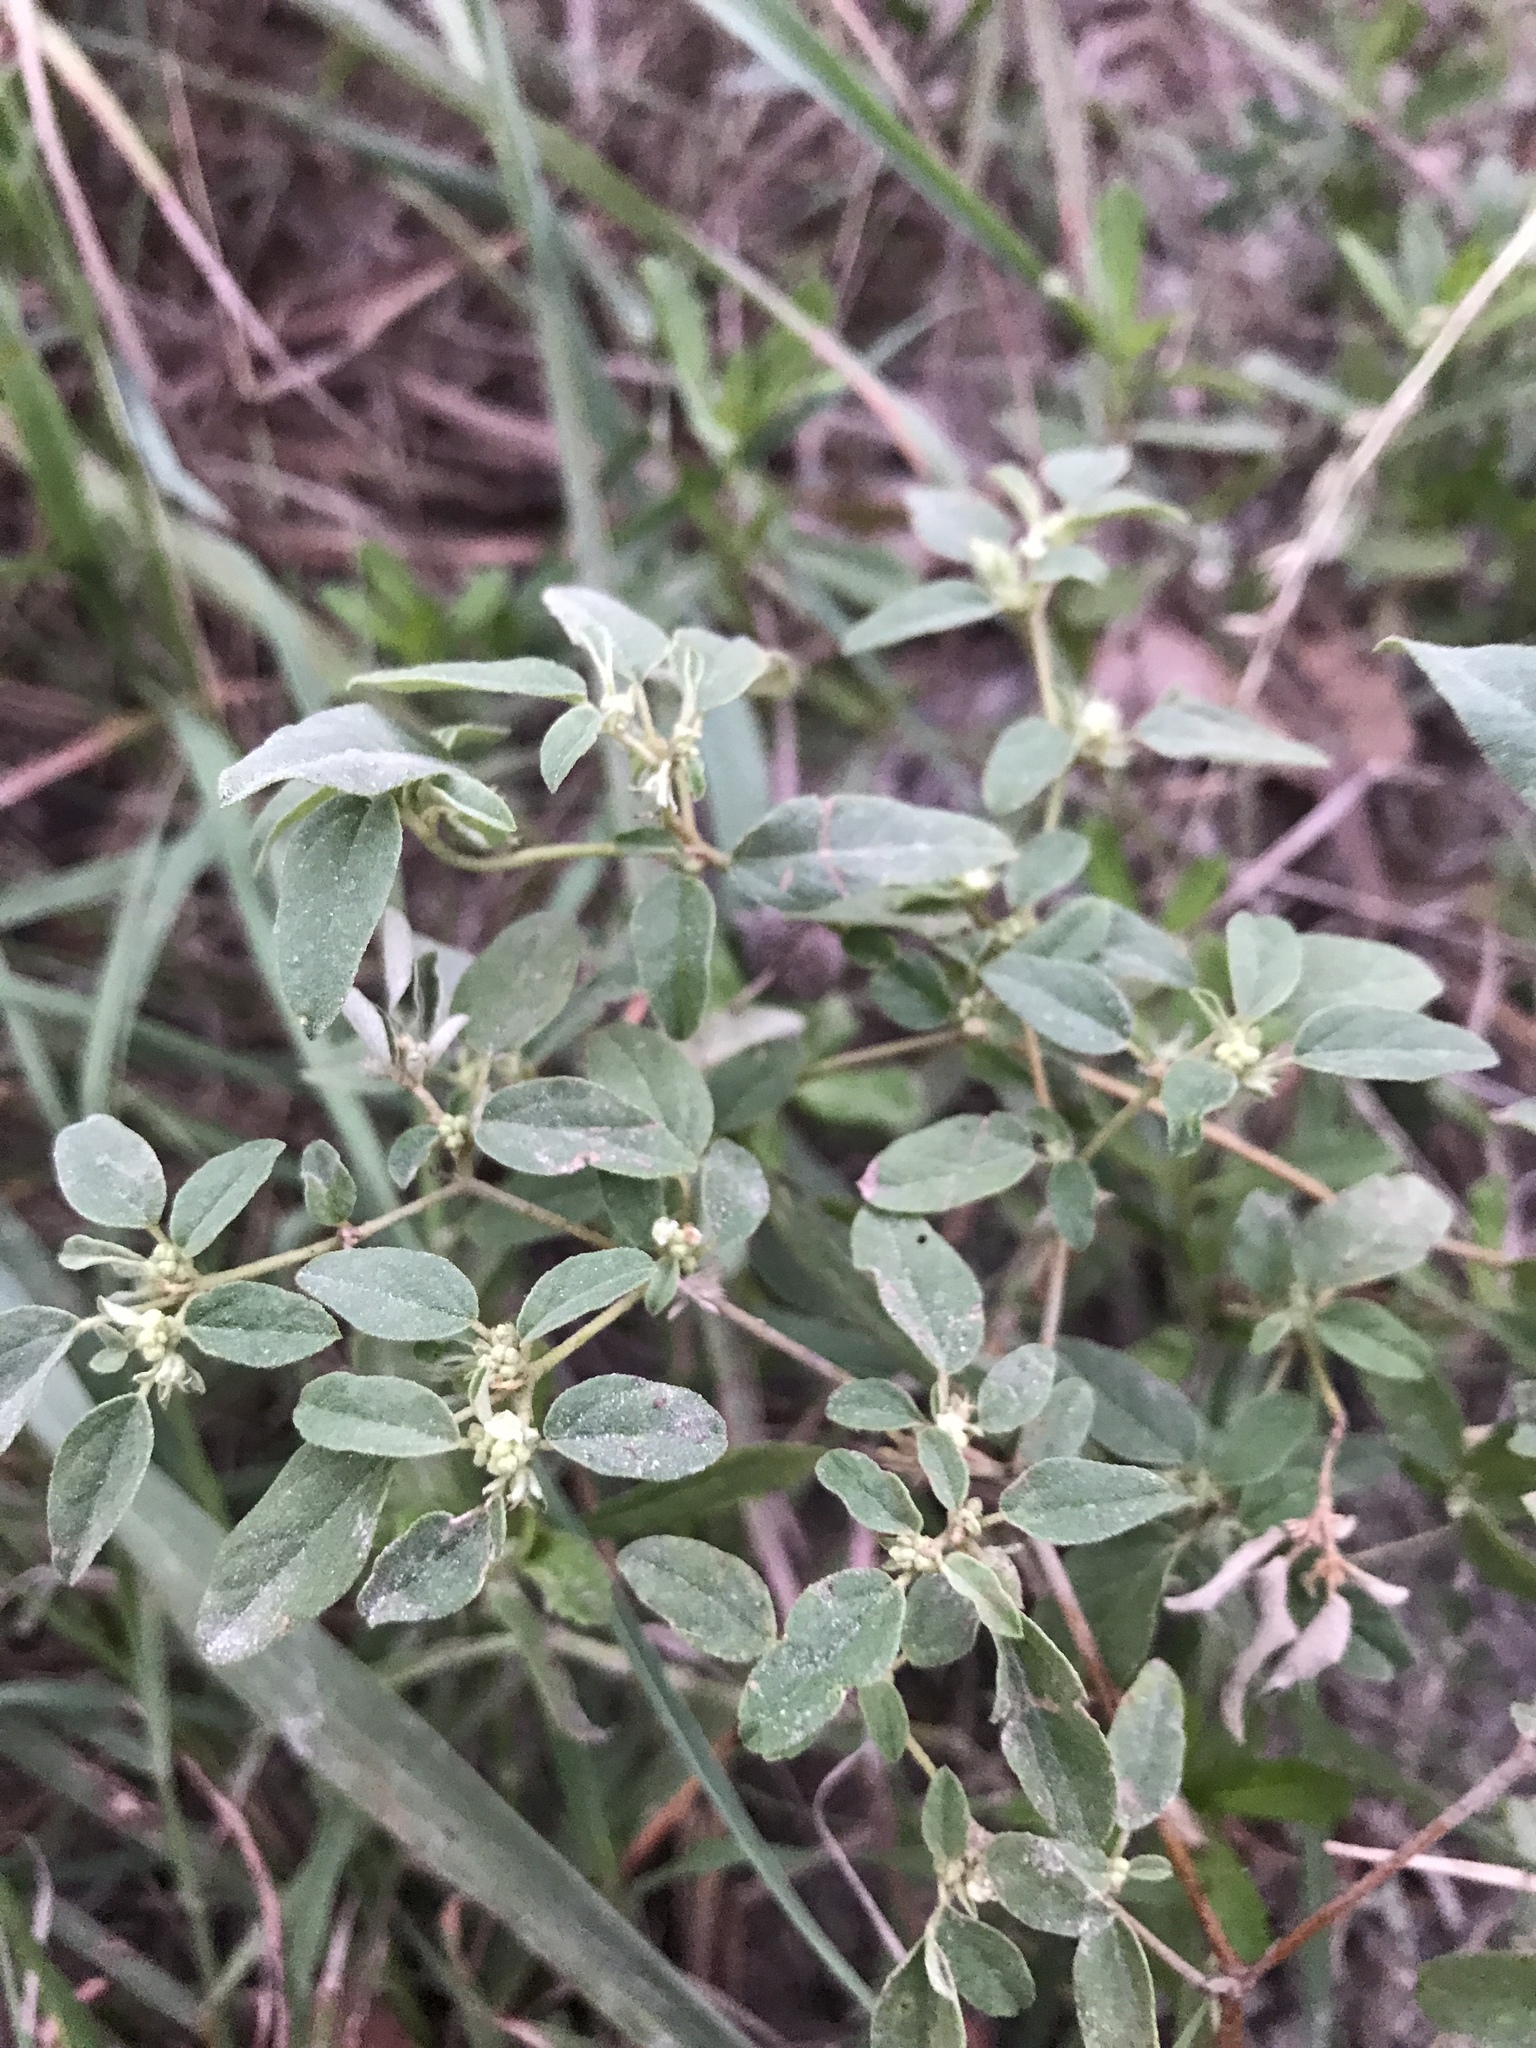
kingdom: Plantae
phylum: Tracheophyta
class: Magnoliopsida
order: Malpighiales
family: Euphorbiaceae
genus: Croton
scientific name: Croton monanthogynus
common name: One-seed croton
